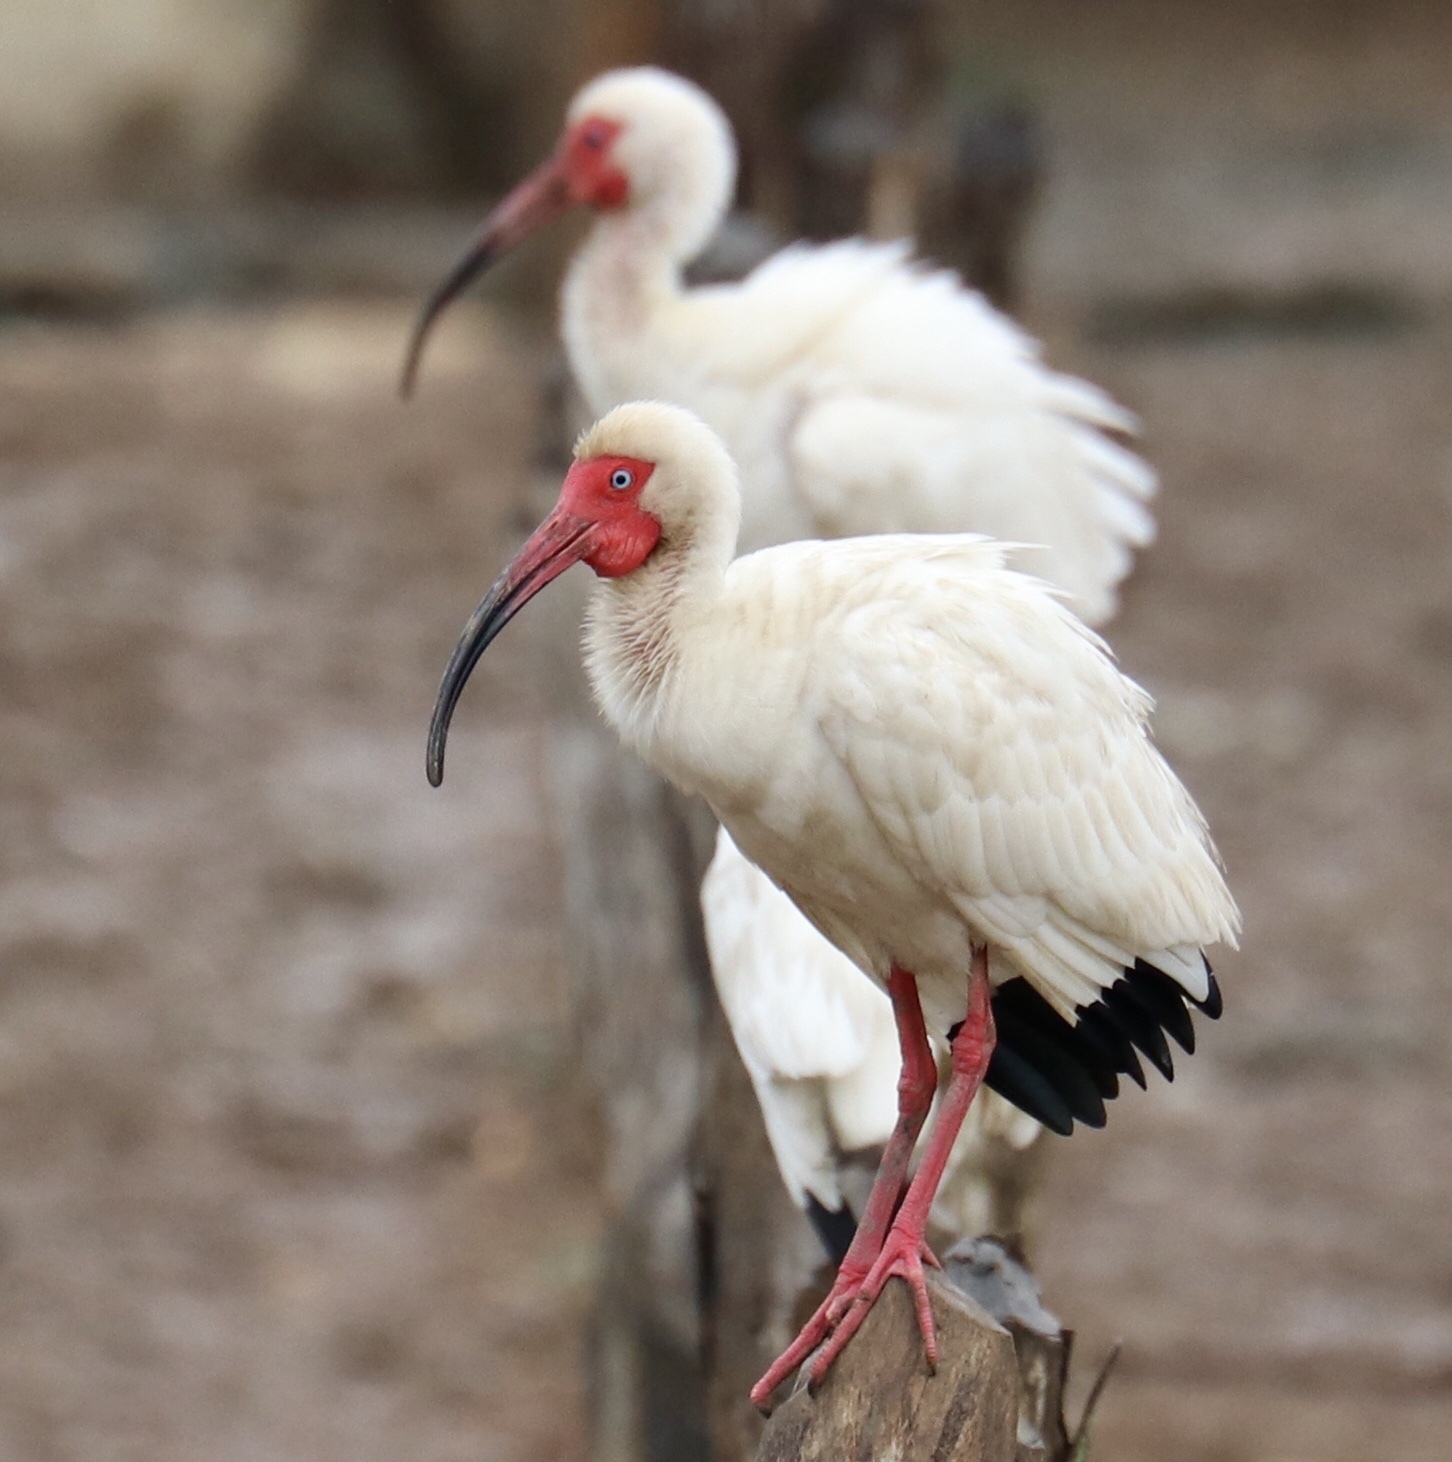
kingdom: Animalia
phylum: Chordata
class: Aves
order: Pelecaniformes
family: Threskiornithidae
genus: Eudocimus
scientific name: Eudocimus albus
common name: White ibis
